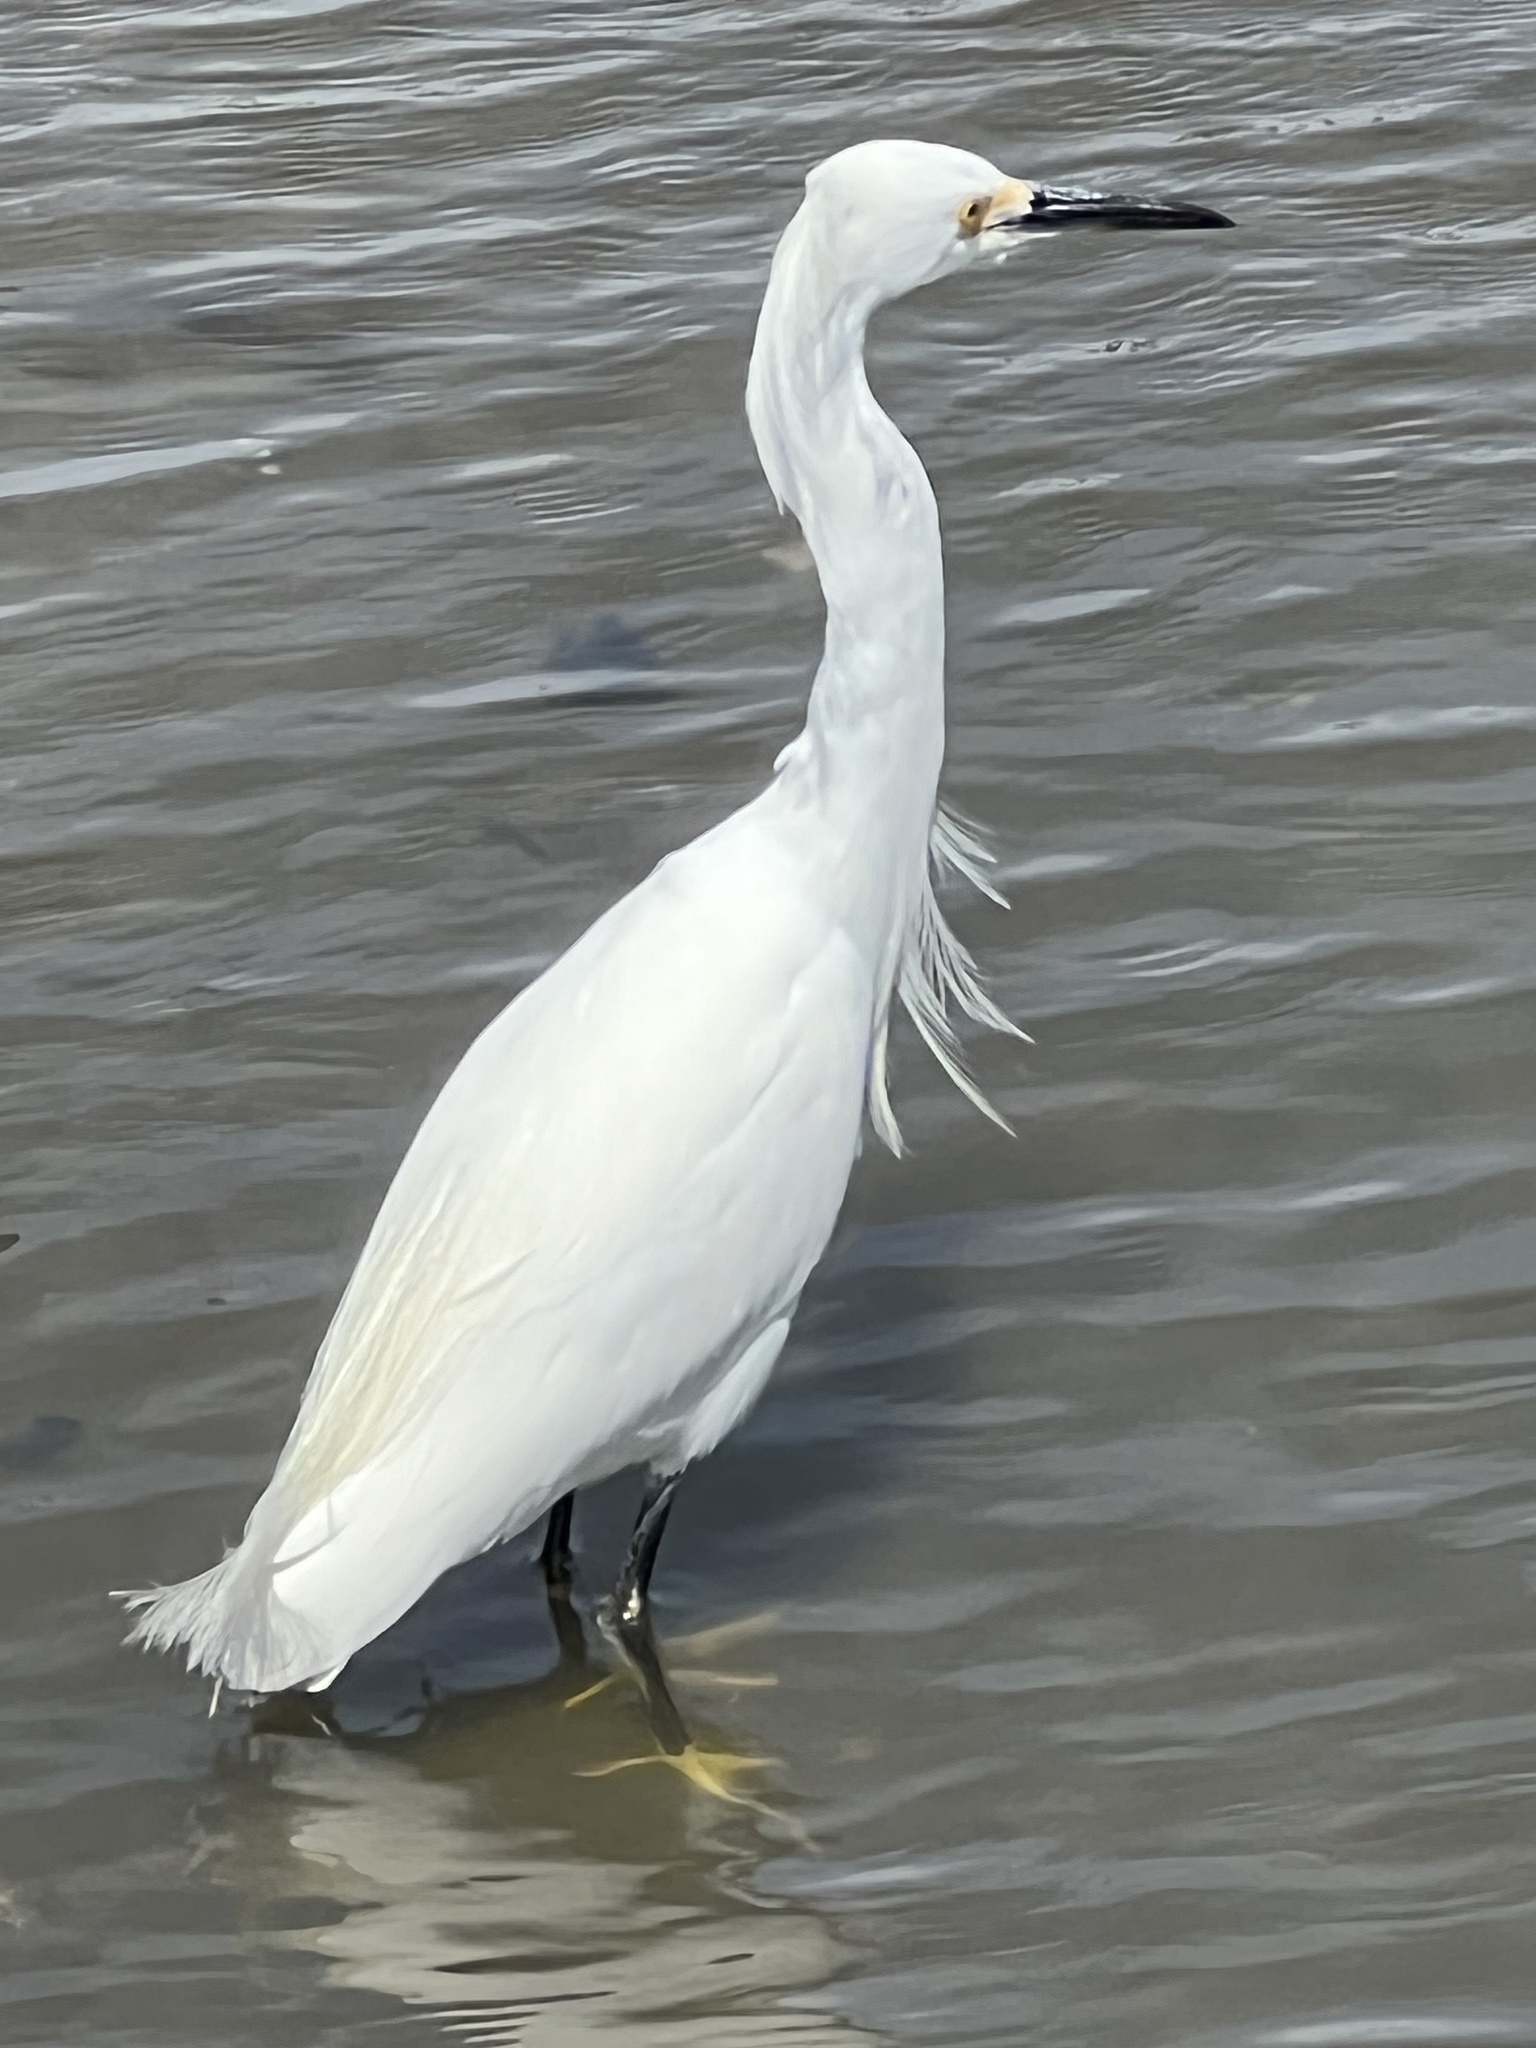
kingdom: Animalia
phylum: Chordata
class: Aves
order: Pelecaniformes
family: Ardeidae
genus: Egretta
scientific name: Egretta thula
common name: Snowy egret
